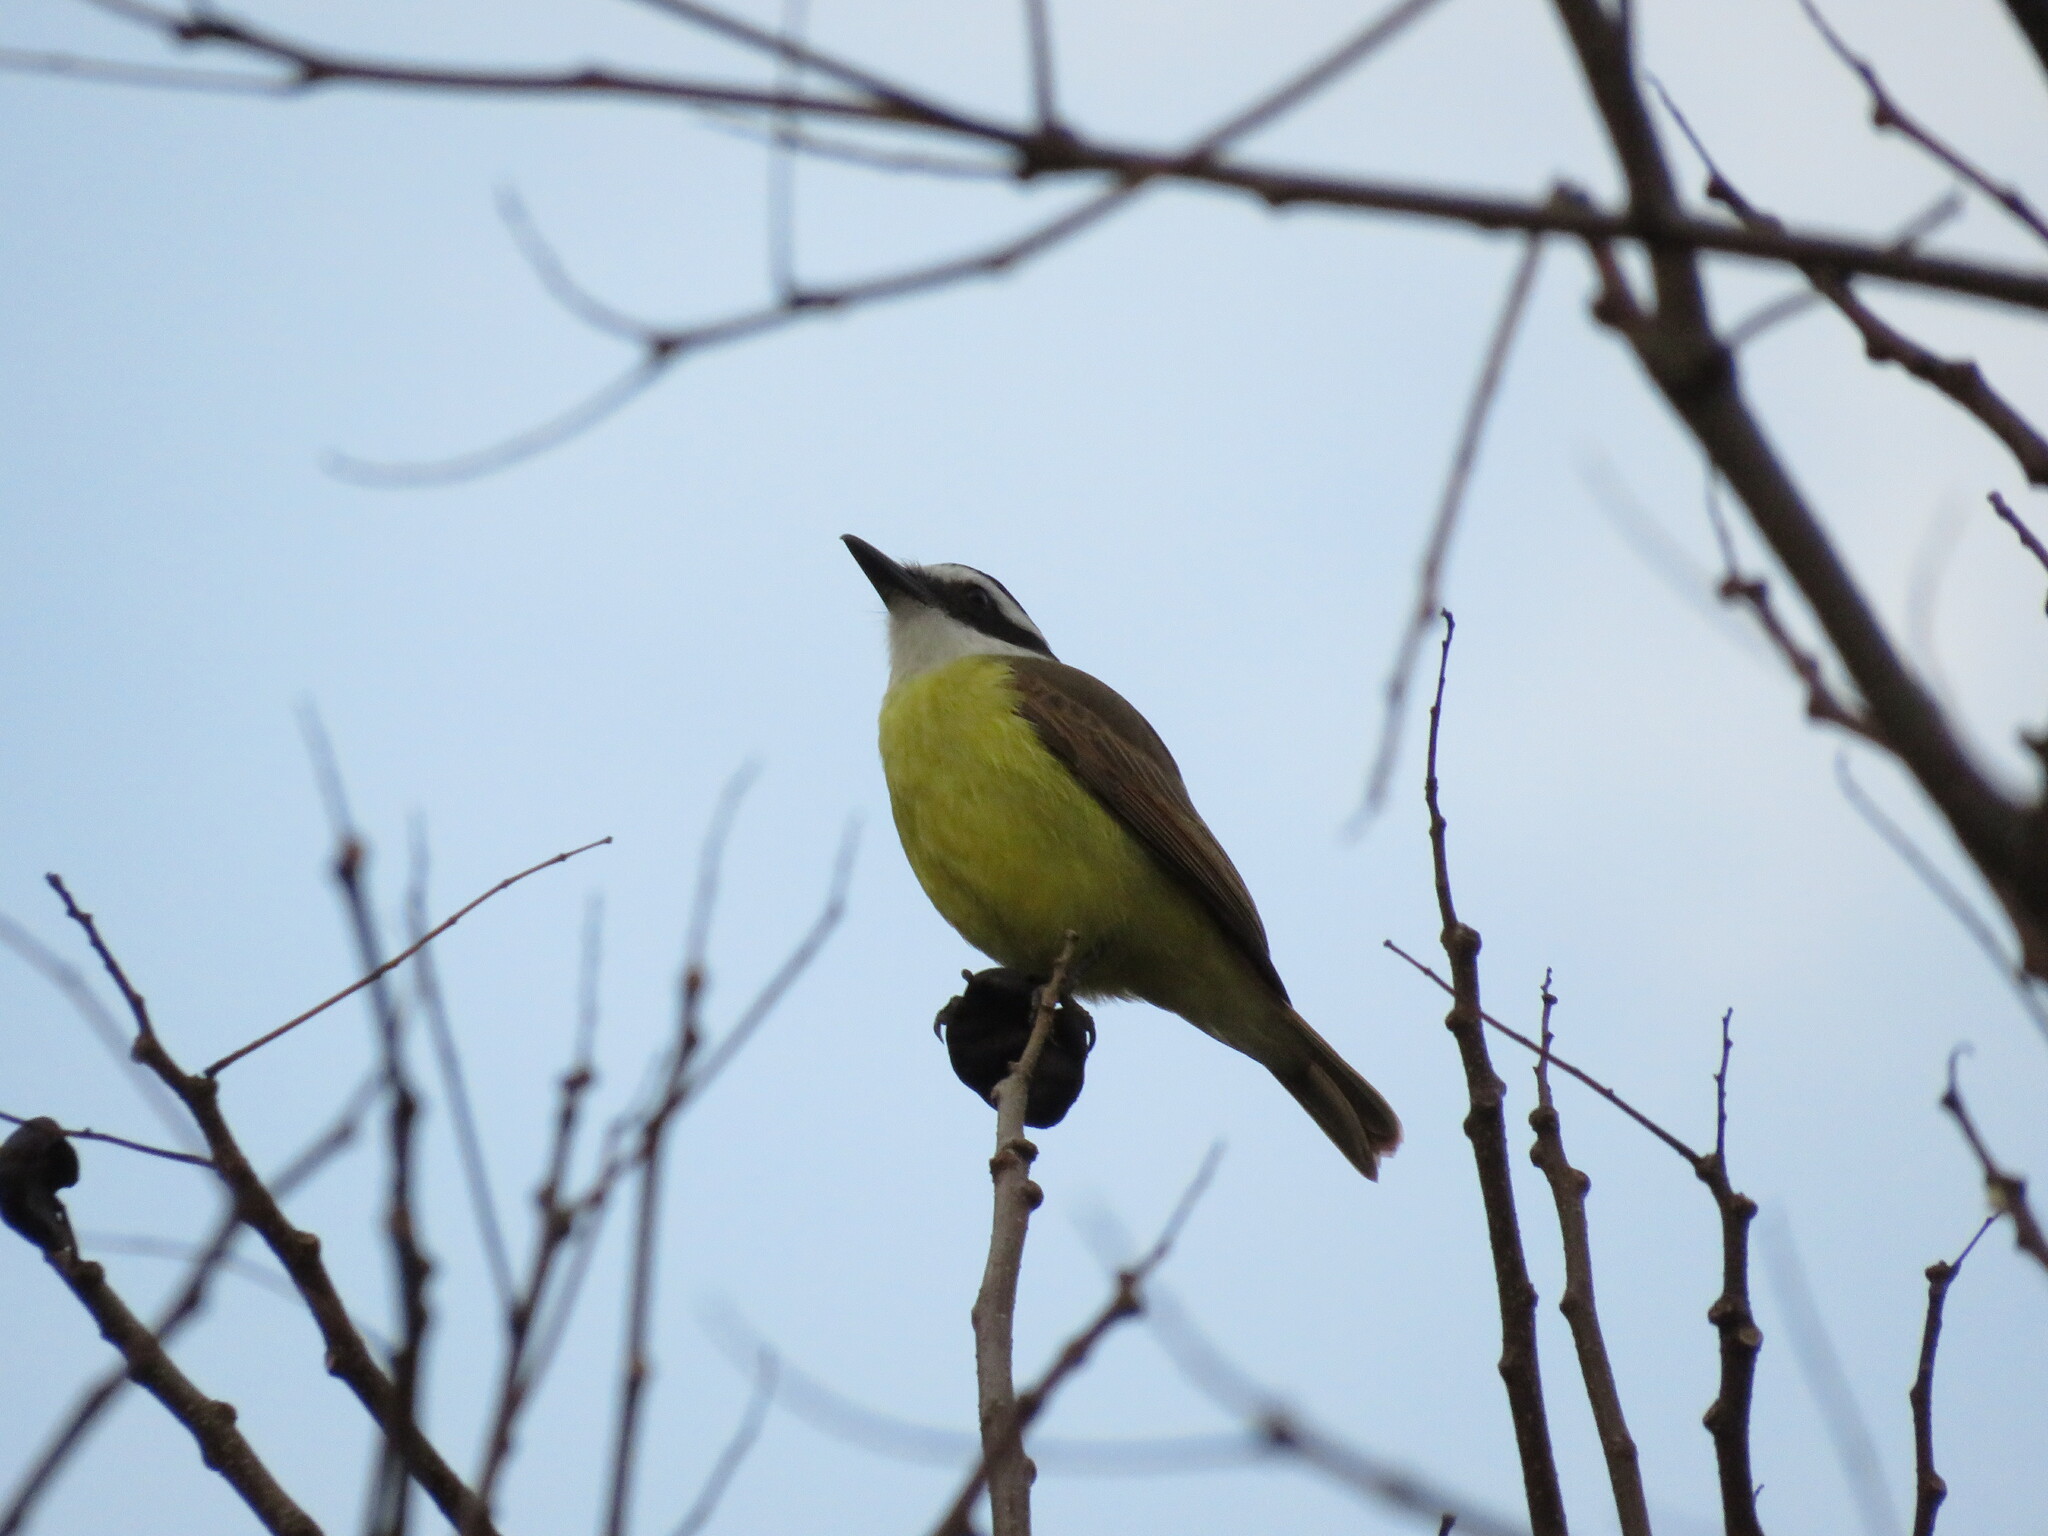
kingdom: Animalia
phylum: Chordata
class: Aves
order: Passeriformes
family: Tyrannidae
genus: Pitangus
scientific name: Pitangus sulphuratus
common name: Great kiskadee
